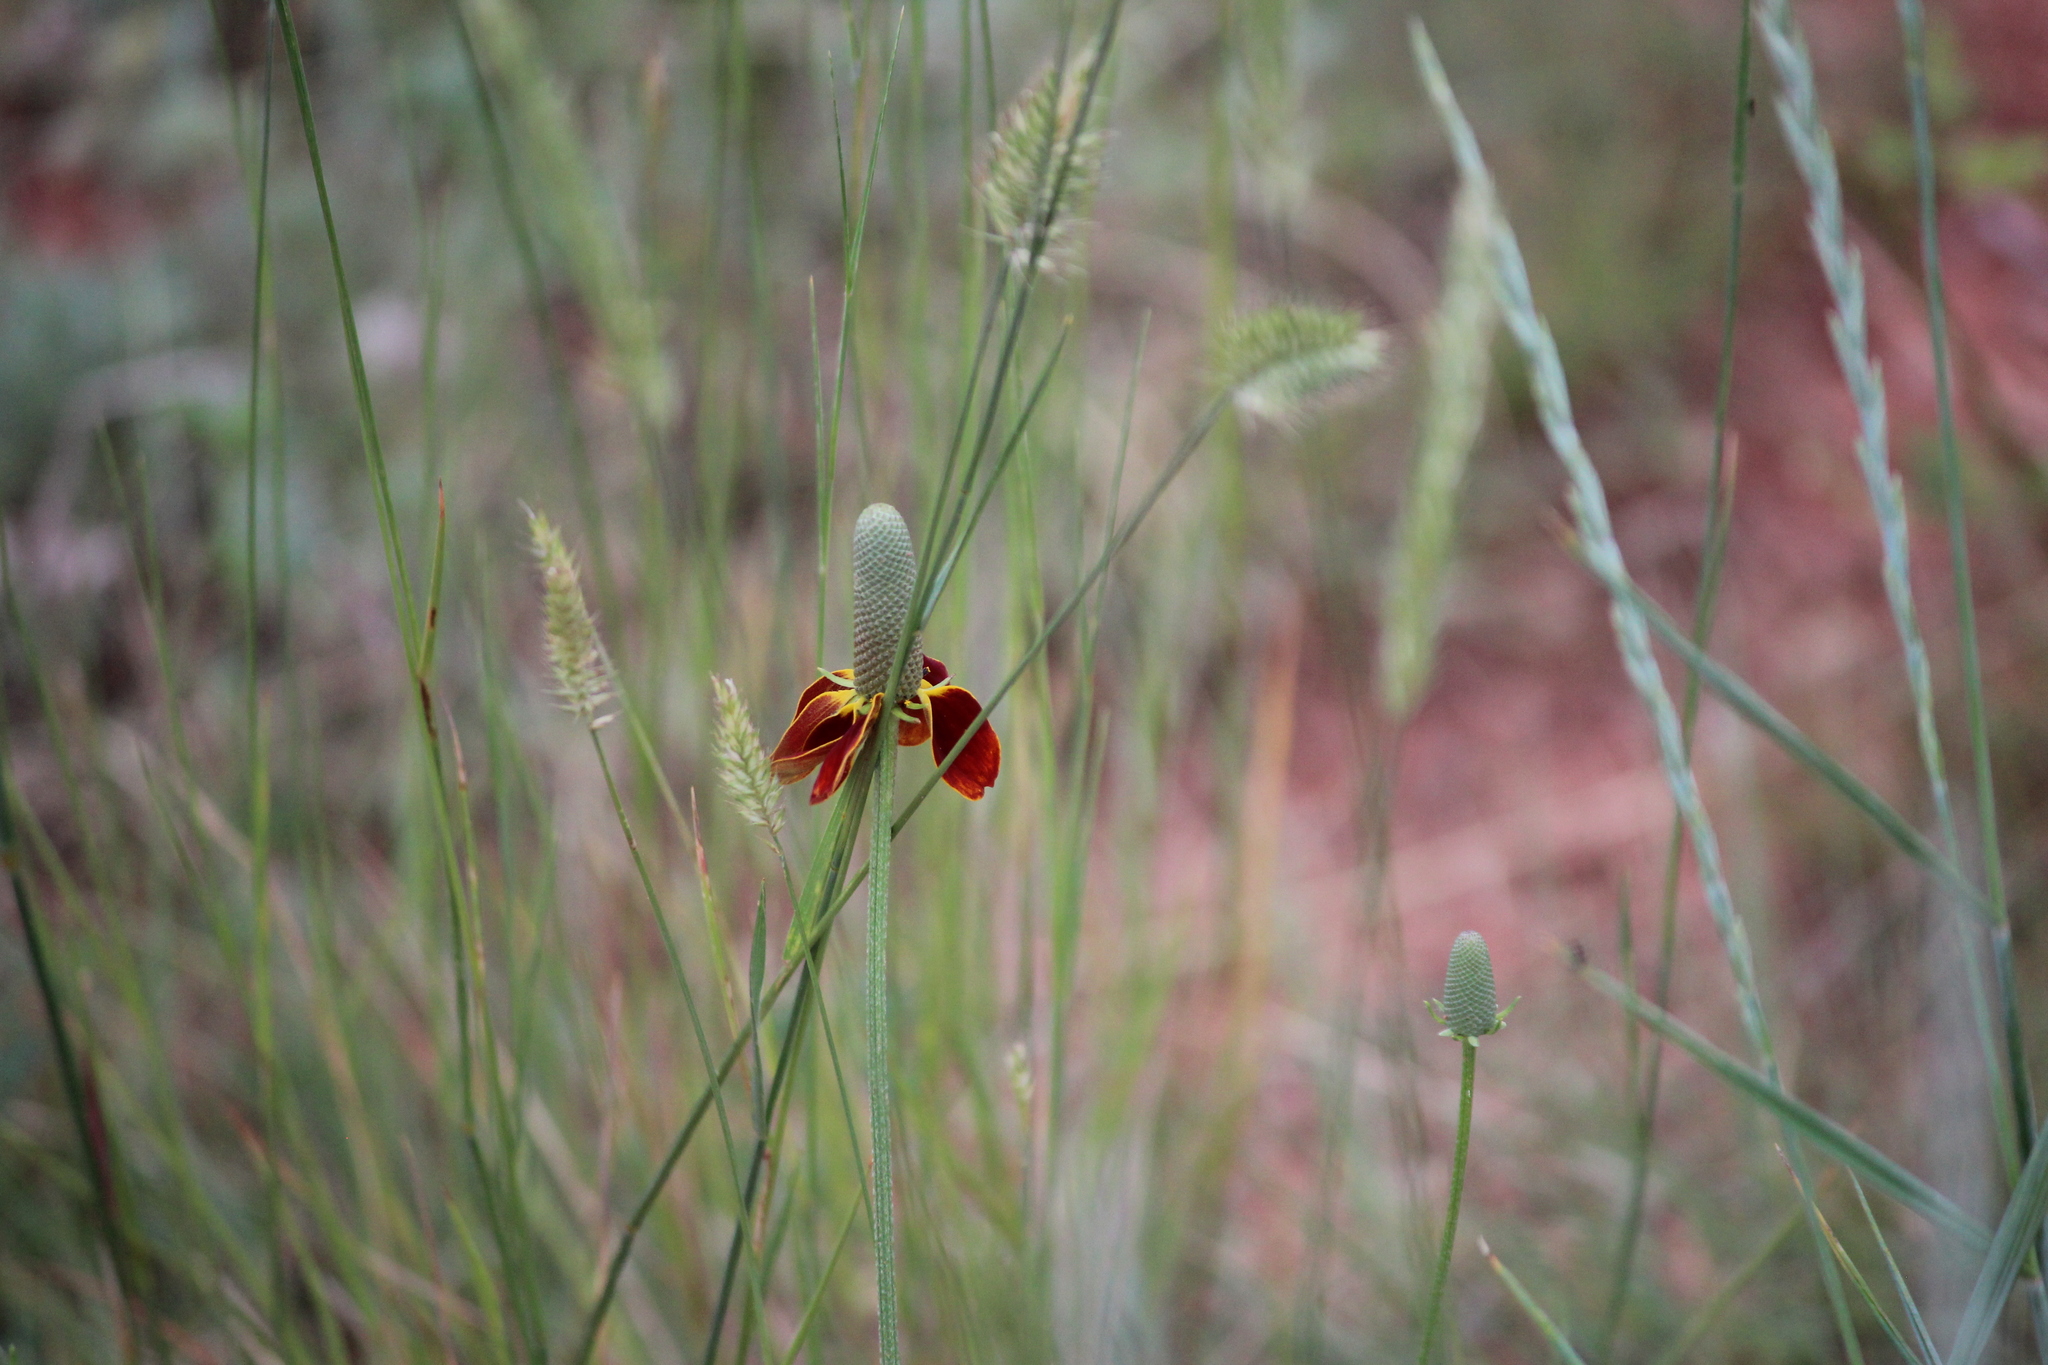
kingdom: Plantae
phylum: Tracheophyta
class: Magnoliopsida
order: Asterales
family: Asteraceae
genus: Ratibida
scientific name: Ratibida columnifera
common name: Prairie coneflower
